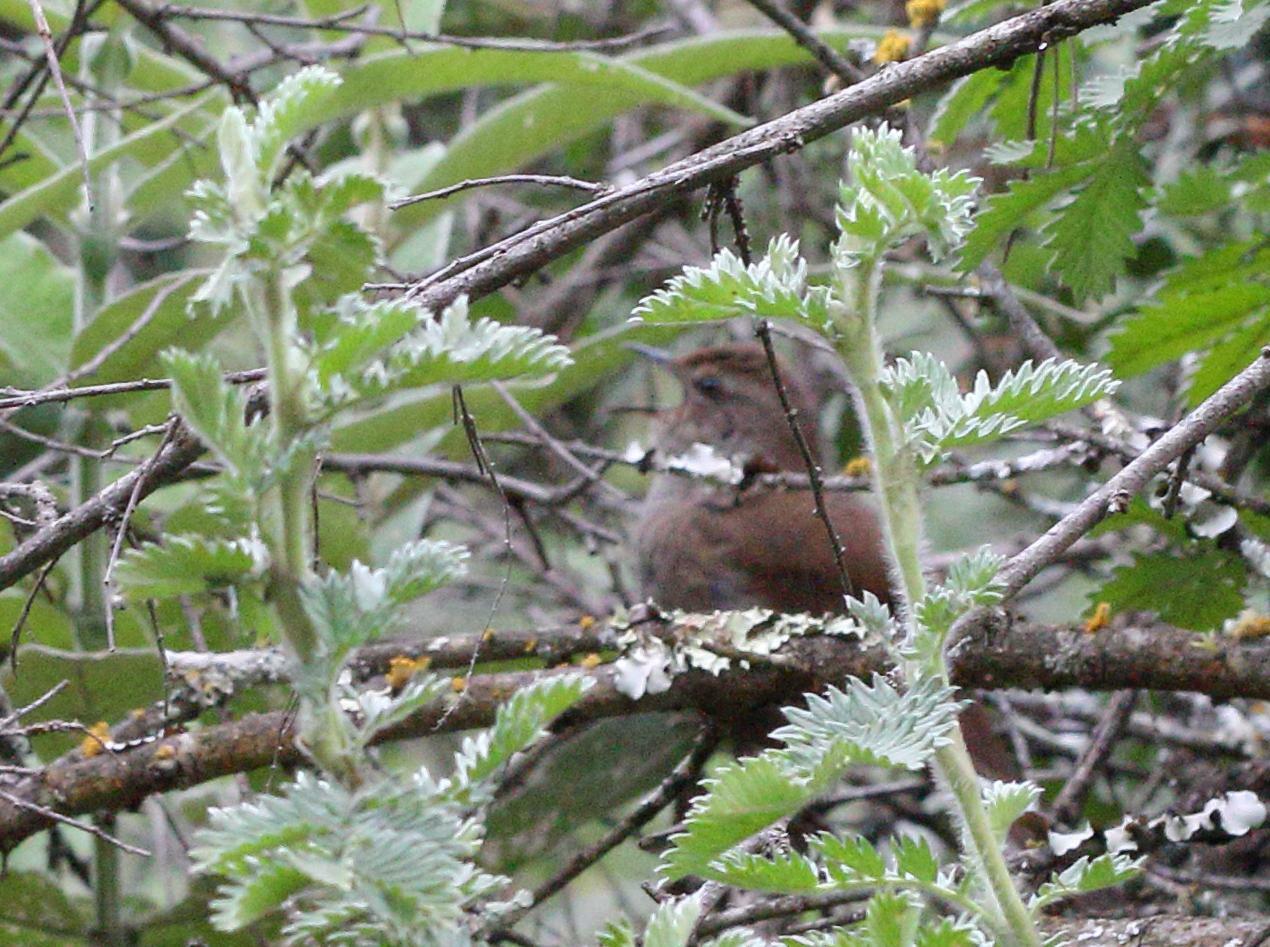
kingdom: Animalia
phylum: Chordata
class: Aves
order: Passeriformes
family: Locustellidae
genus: Bradypterus
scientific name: Bradypterus barratti
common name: Barratt's warbler
